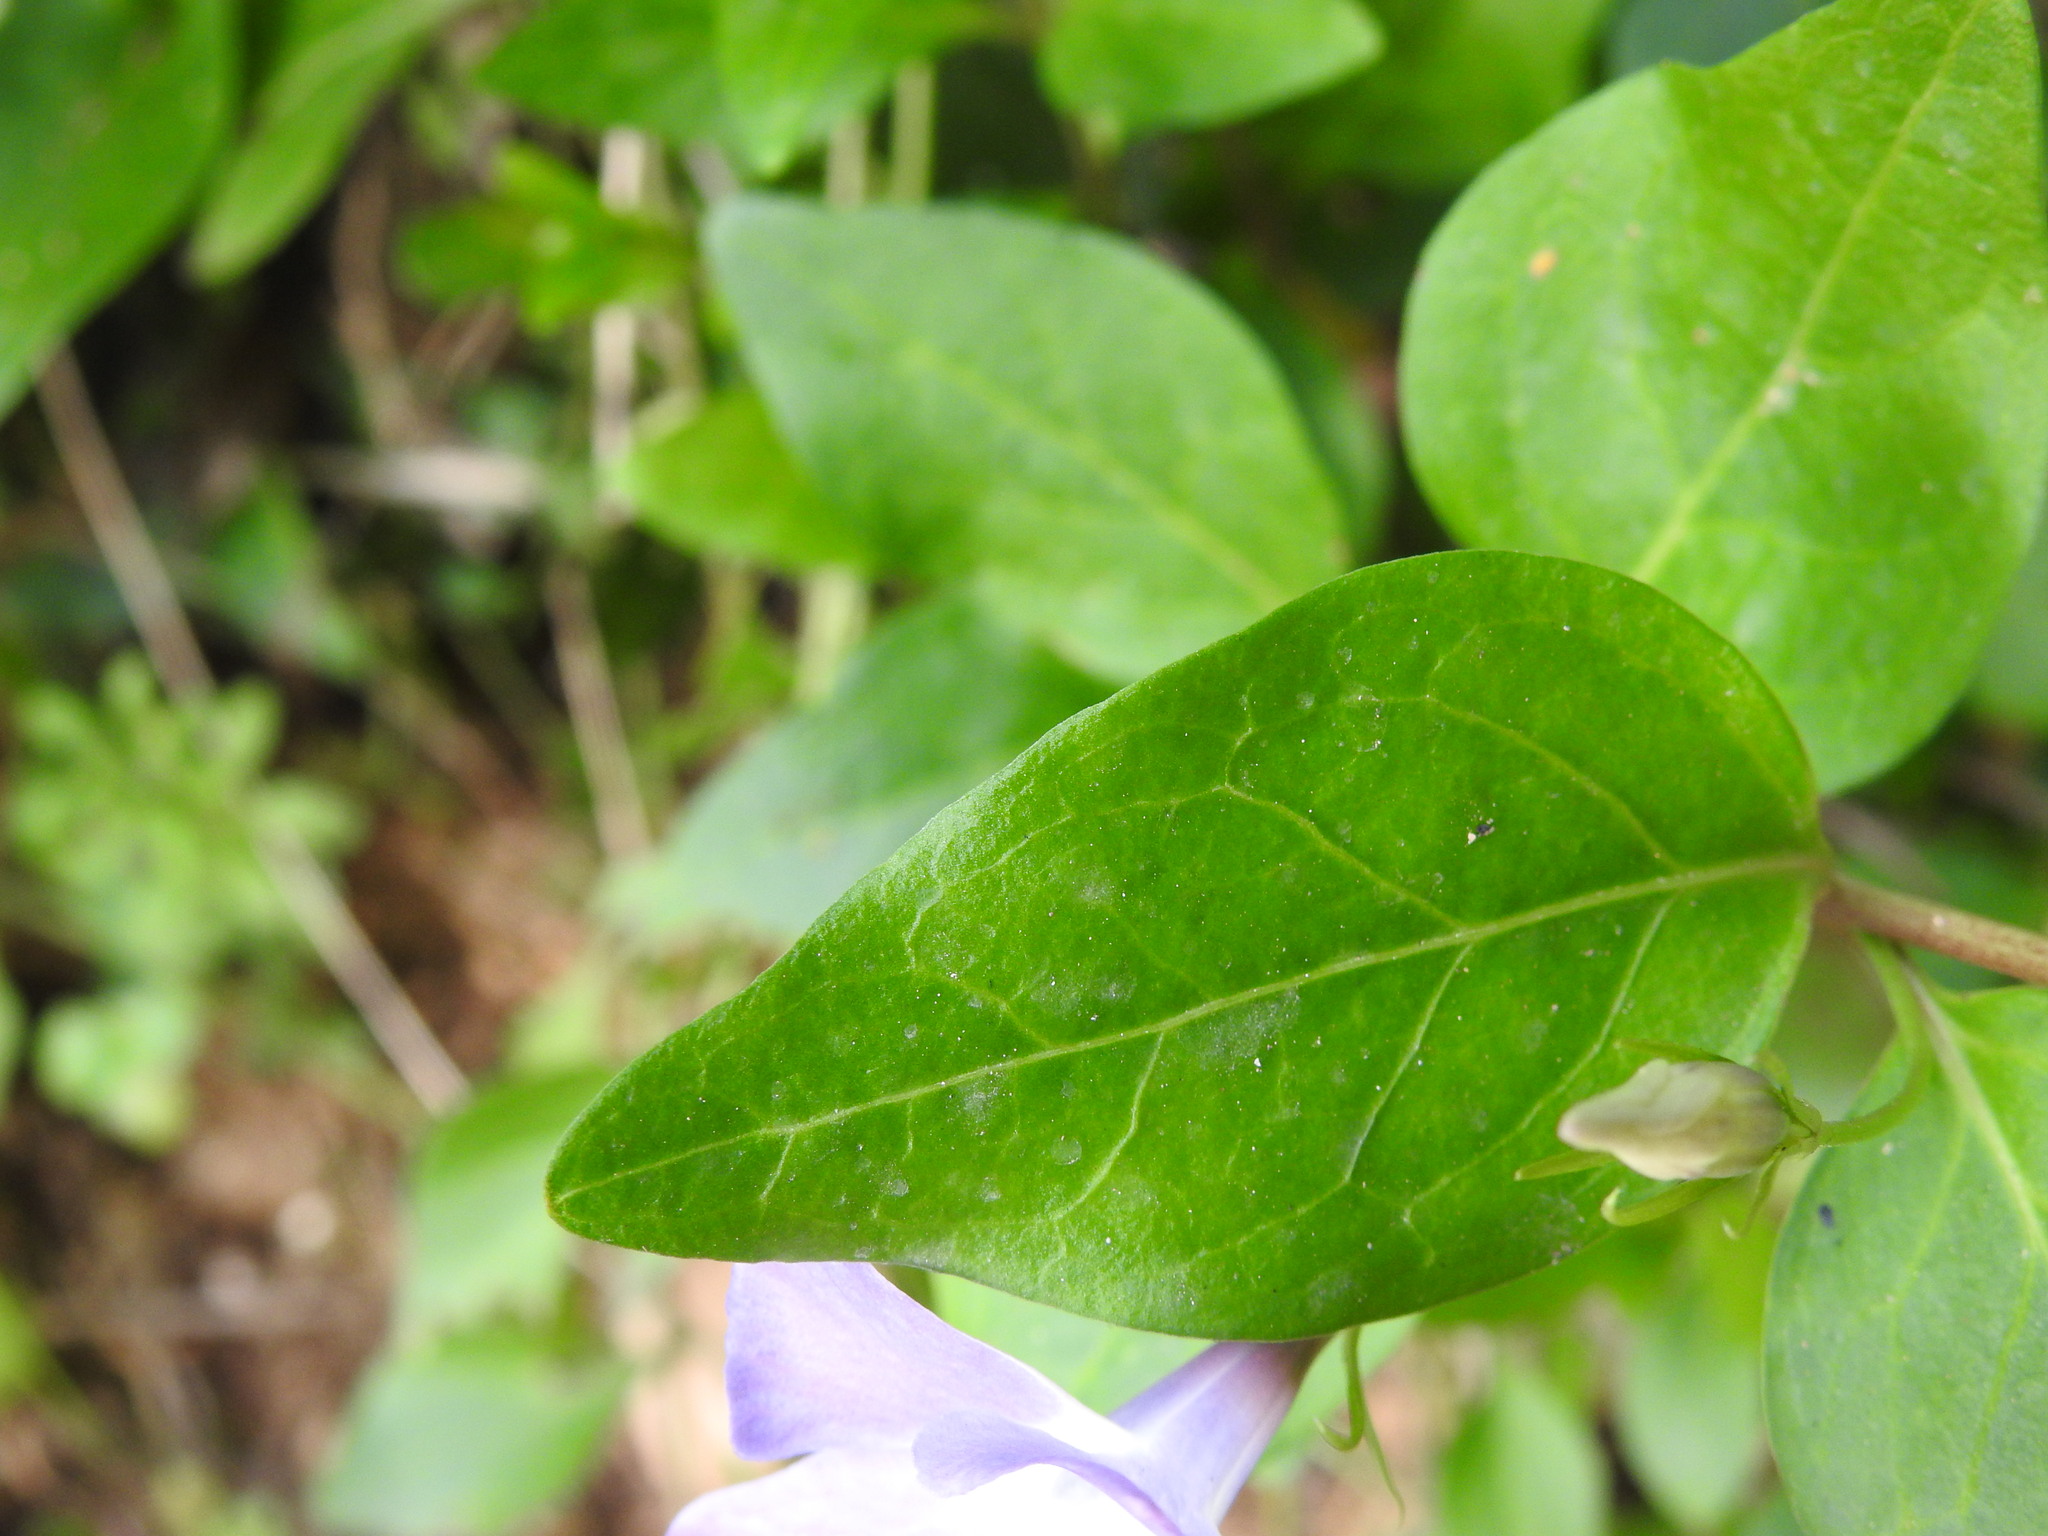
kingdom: Plantae
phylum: Tracheophyta
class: Magnoliopsida
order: Gentianales
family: Apocynaceae
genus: Vinca
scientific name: Vinca difformis
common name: Intermediate periwinkle
